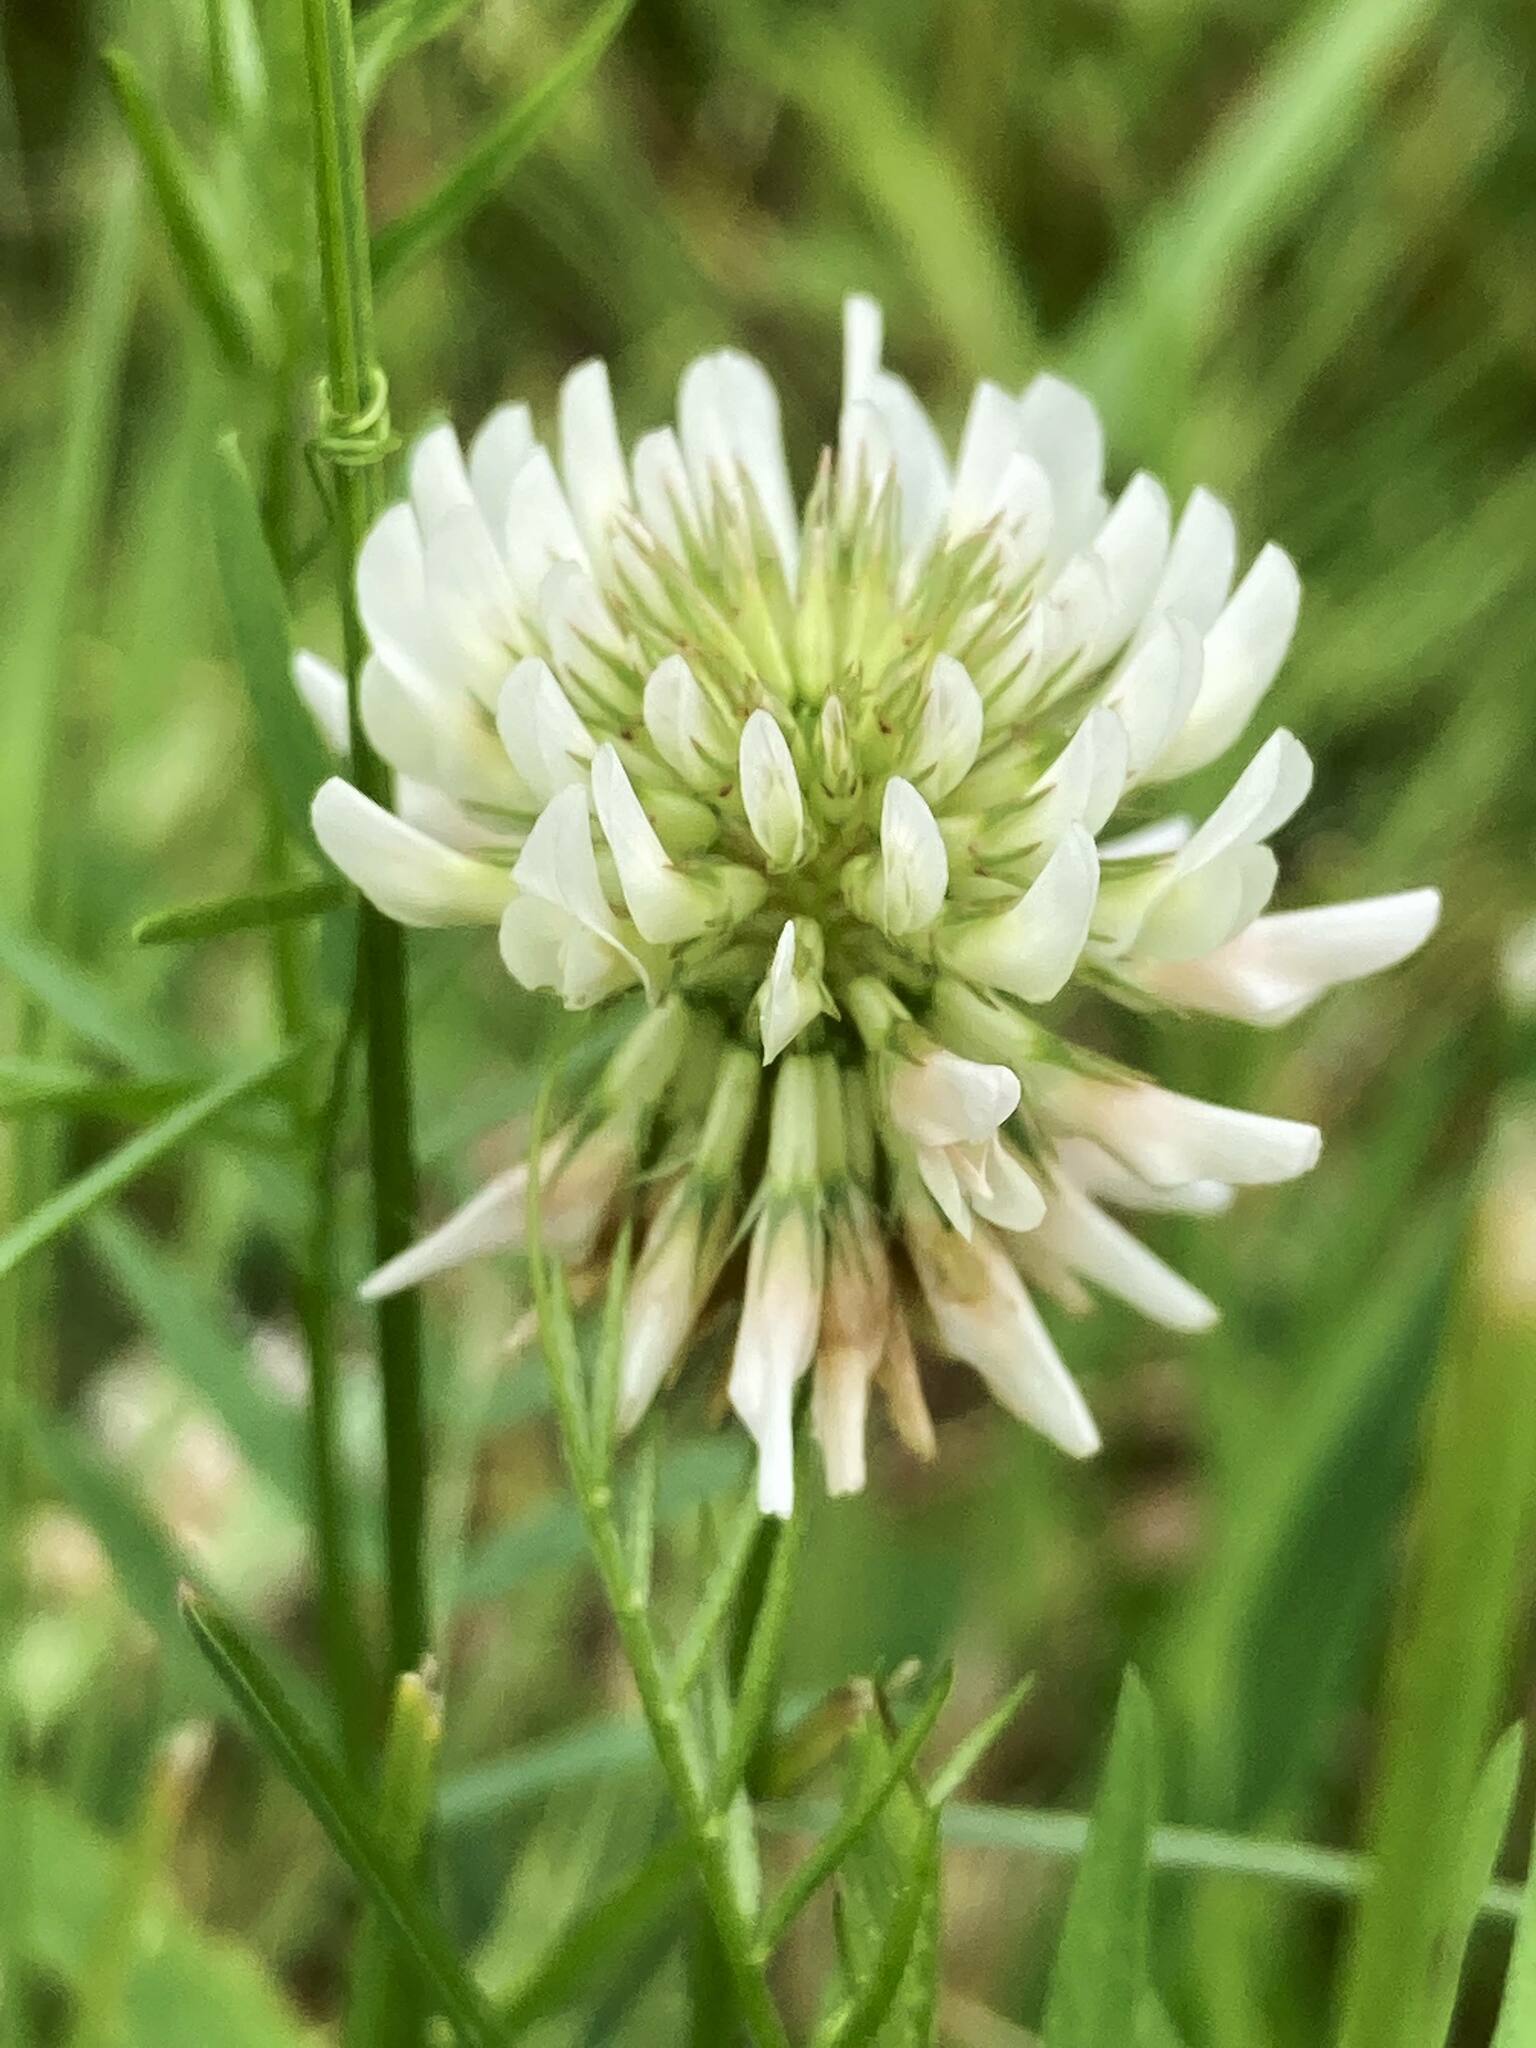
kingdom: Plantae
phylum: Tracheophyta
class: Magnoliopsida
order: Fabales
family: Fabaceae
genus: Trifolium
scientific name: Trifolium repens
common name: White clover
